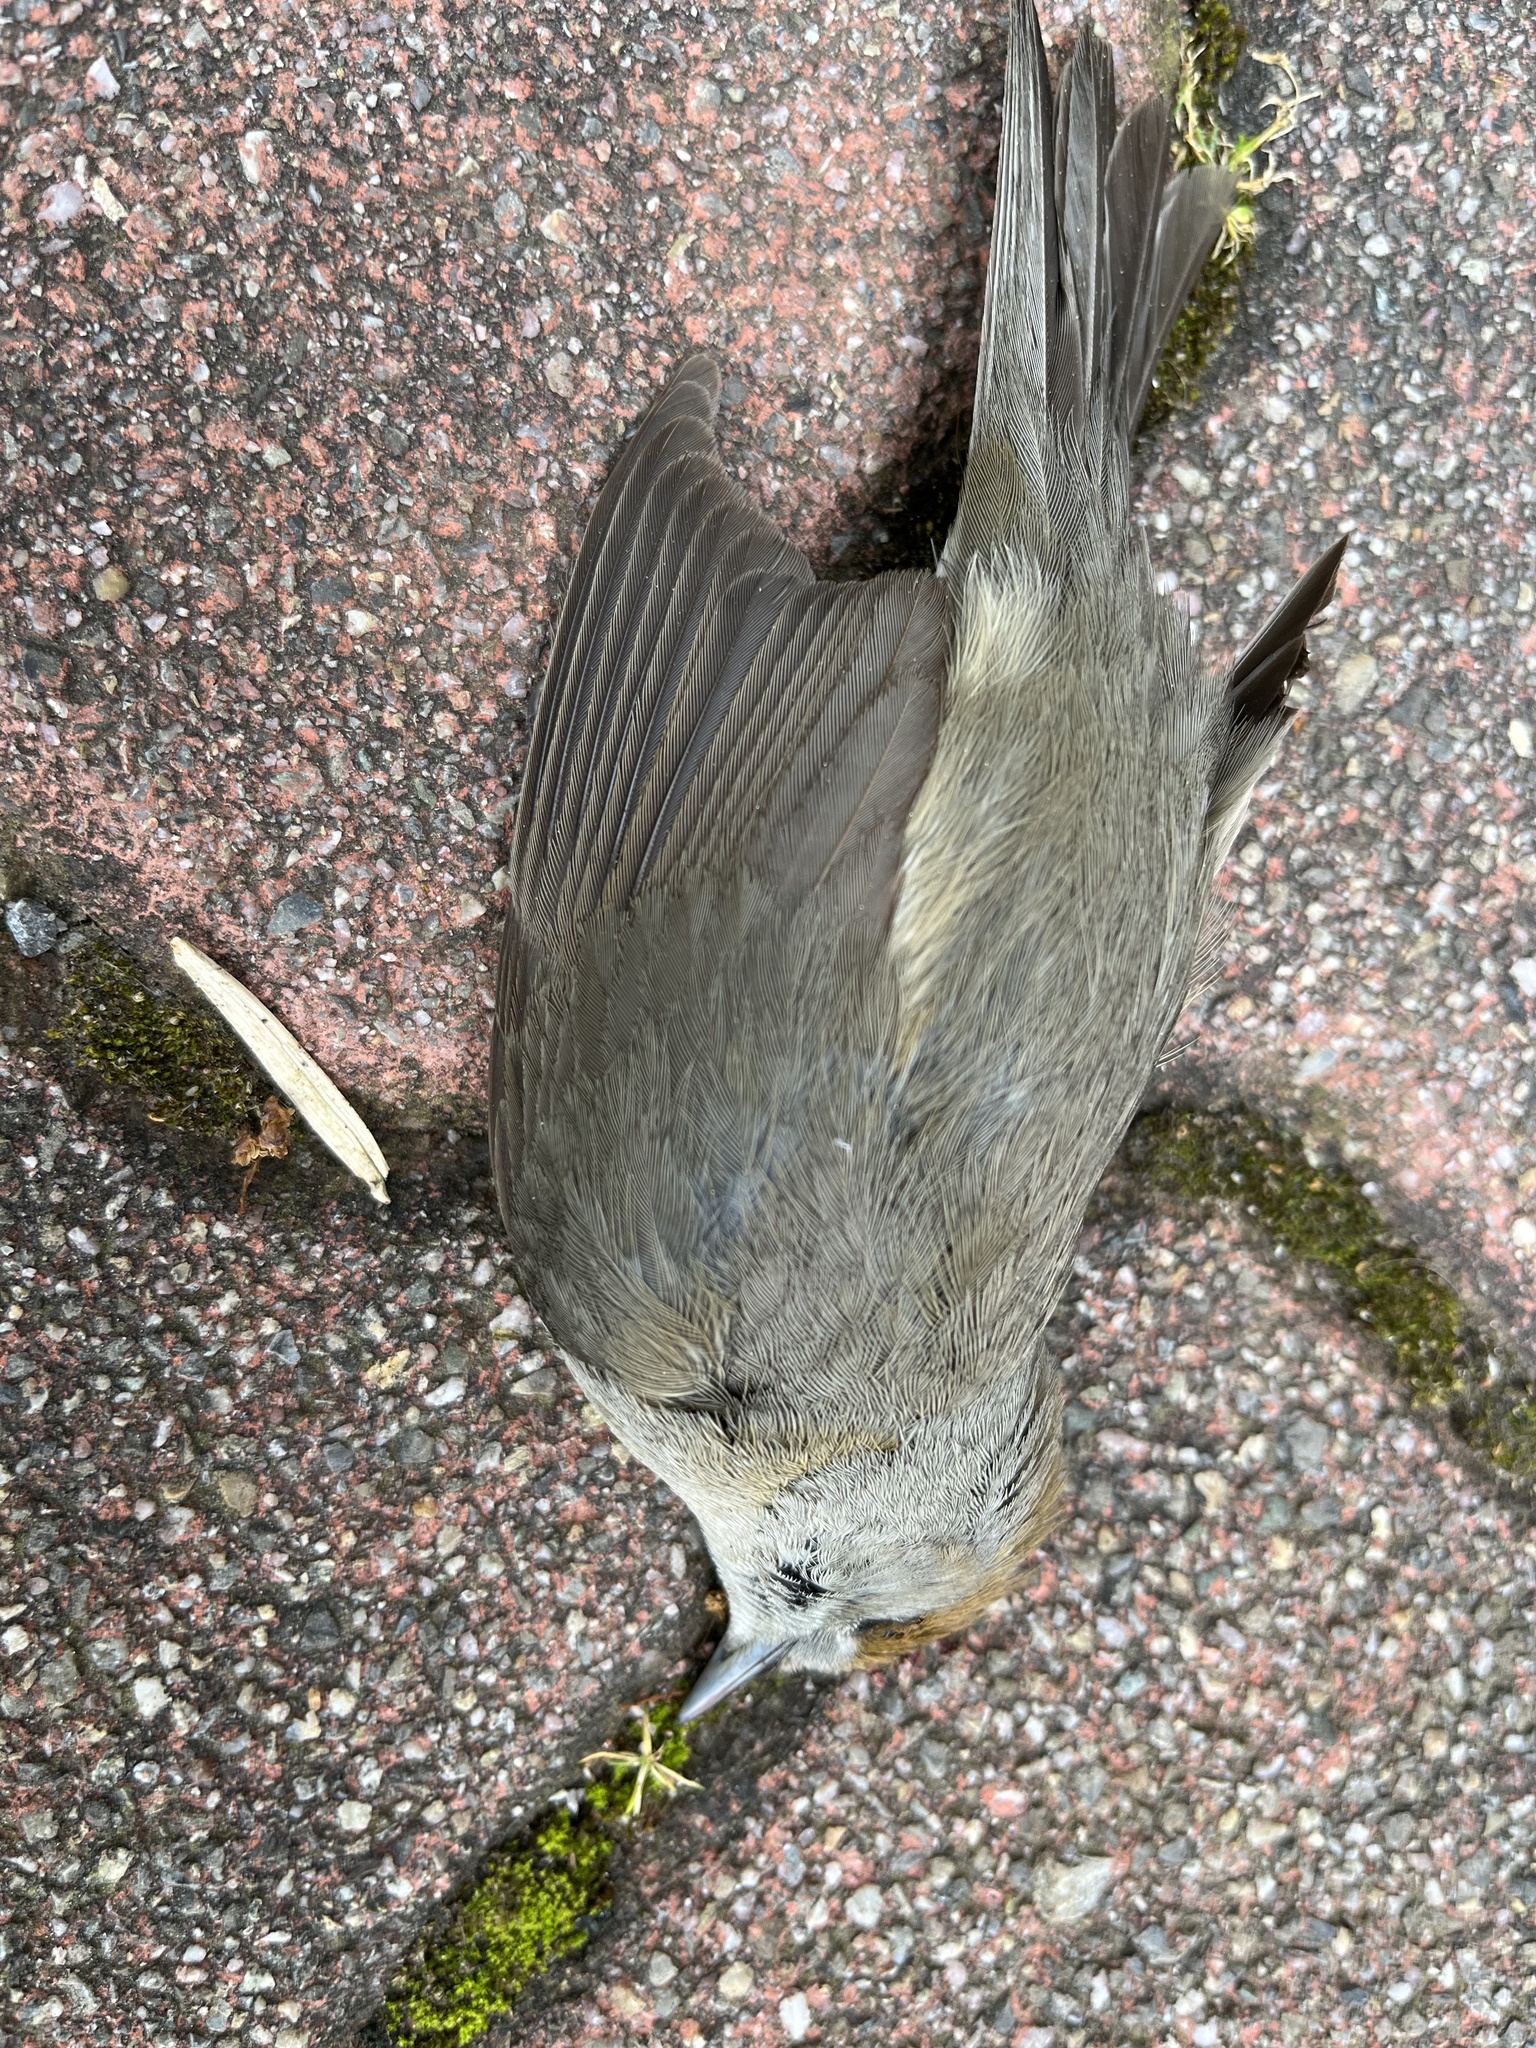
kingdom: Animalia
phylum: Chordata
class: Aves
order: Passeriformes
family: Sylviidae
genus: Sylvia
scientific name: Sylvia atricapilla
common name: Eurasian blackcap
